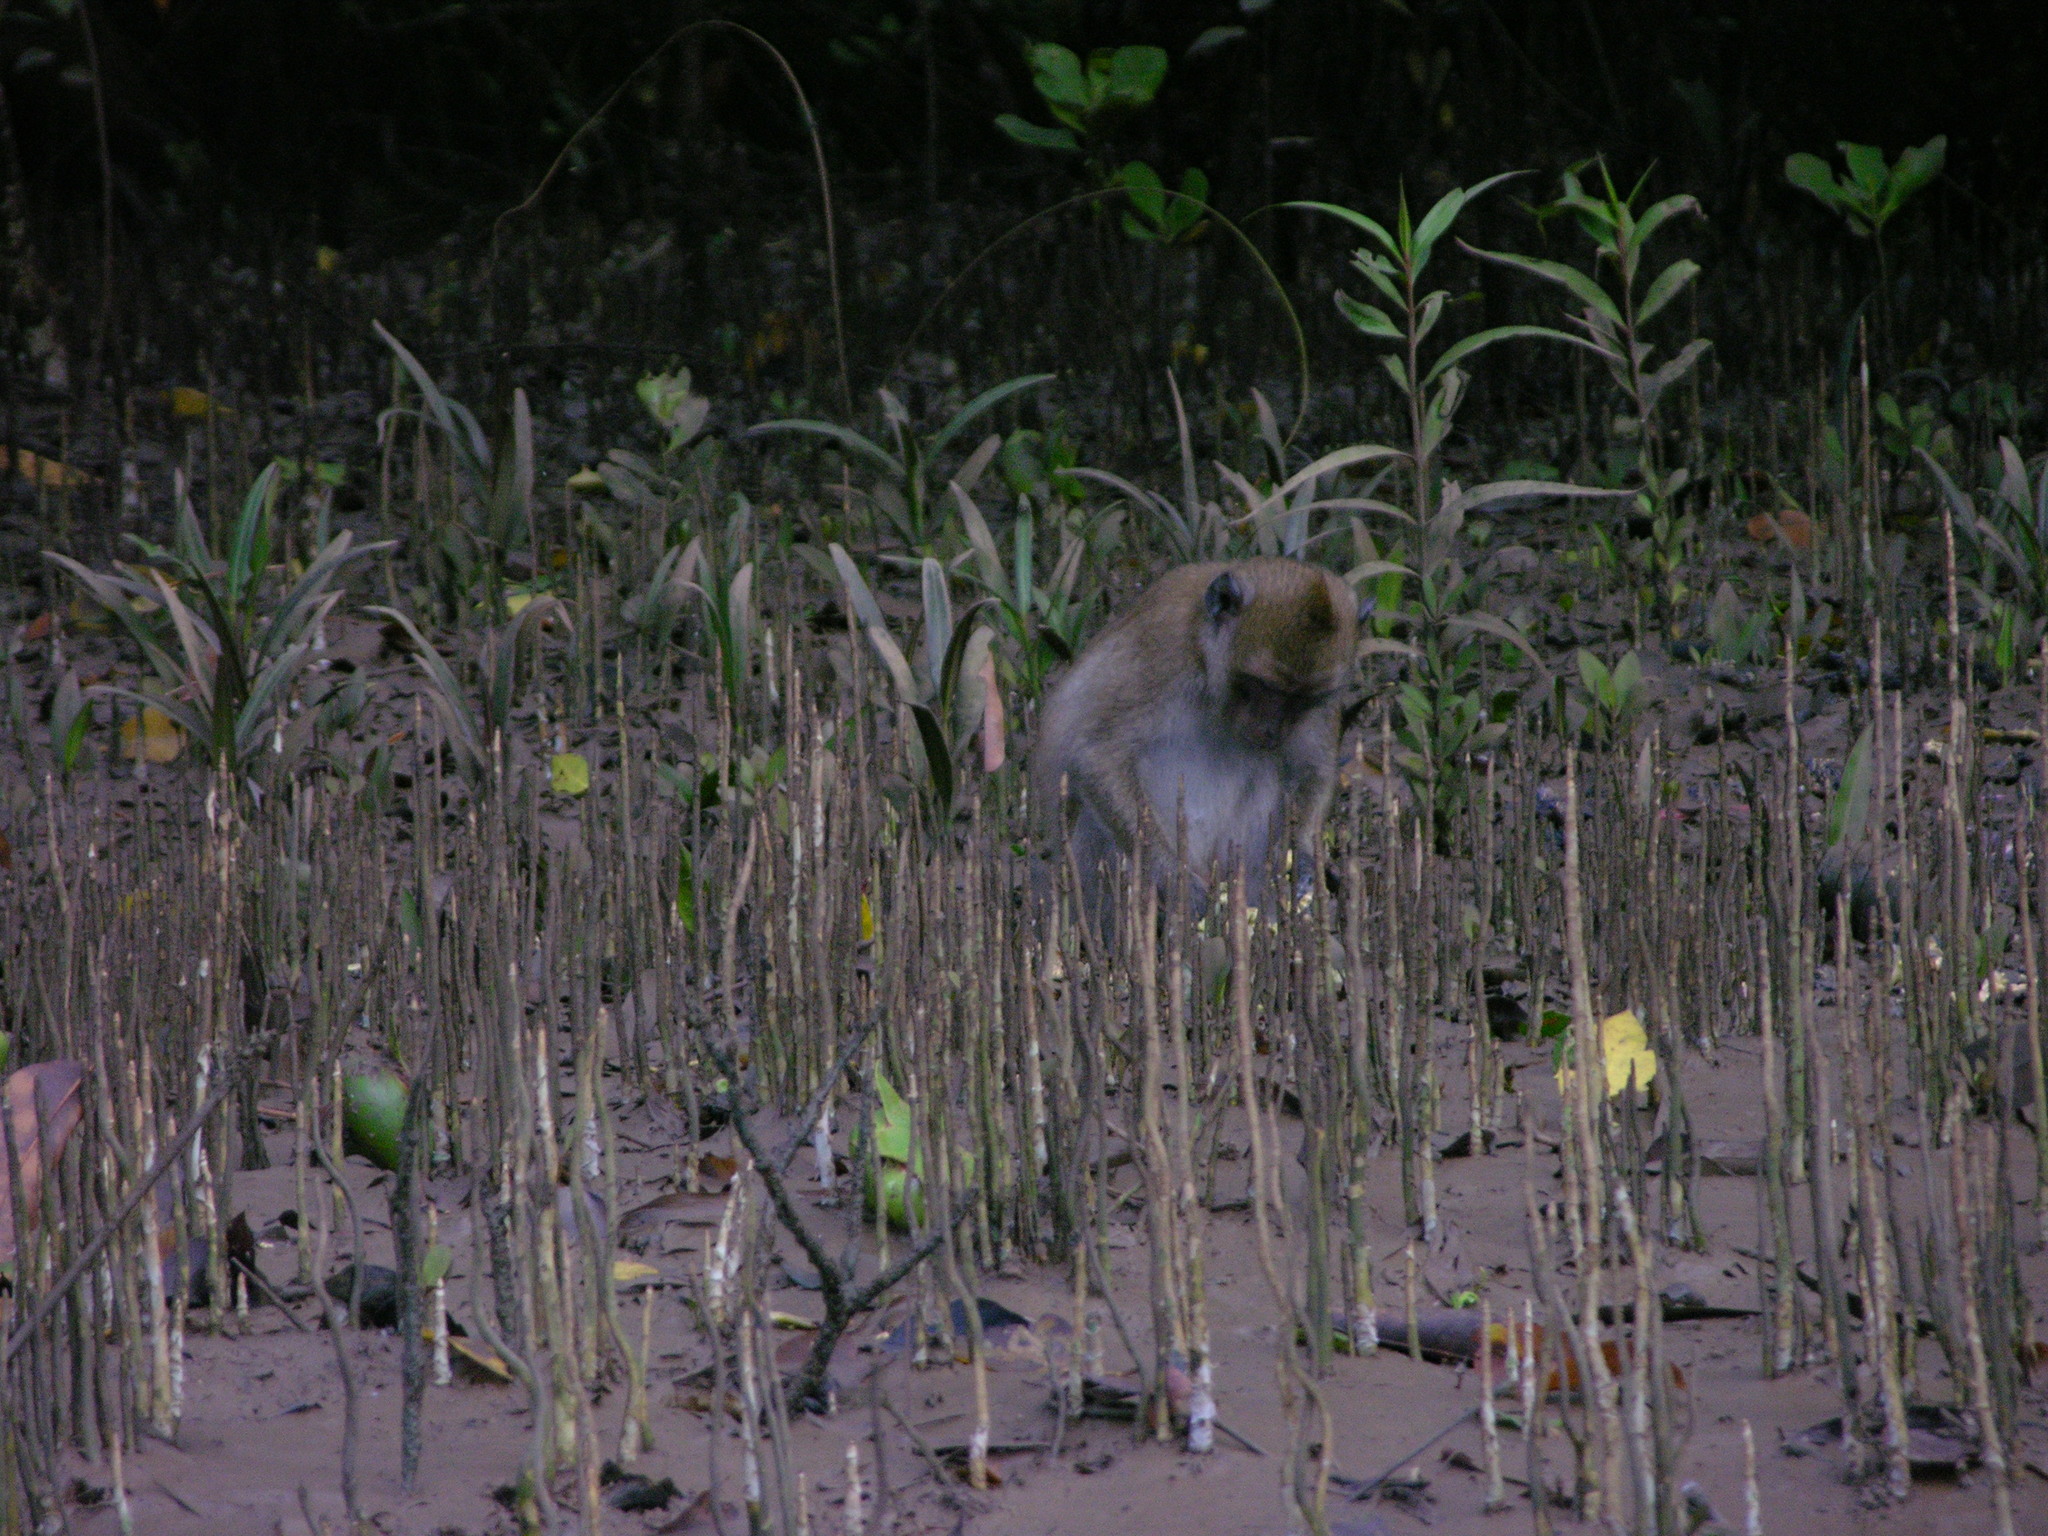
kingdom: Animalia
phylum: Chordata
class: Mammalia
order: Primates
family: Cercopithecidae
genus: Macaca
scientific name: Macaca fascicularis
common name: Crab-eating macaque
